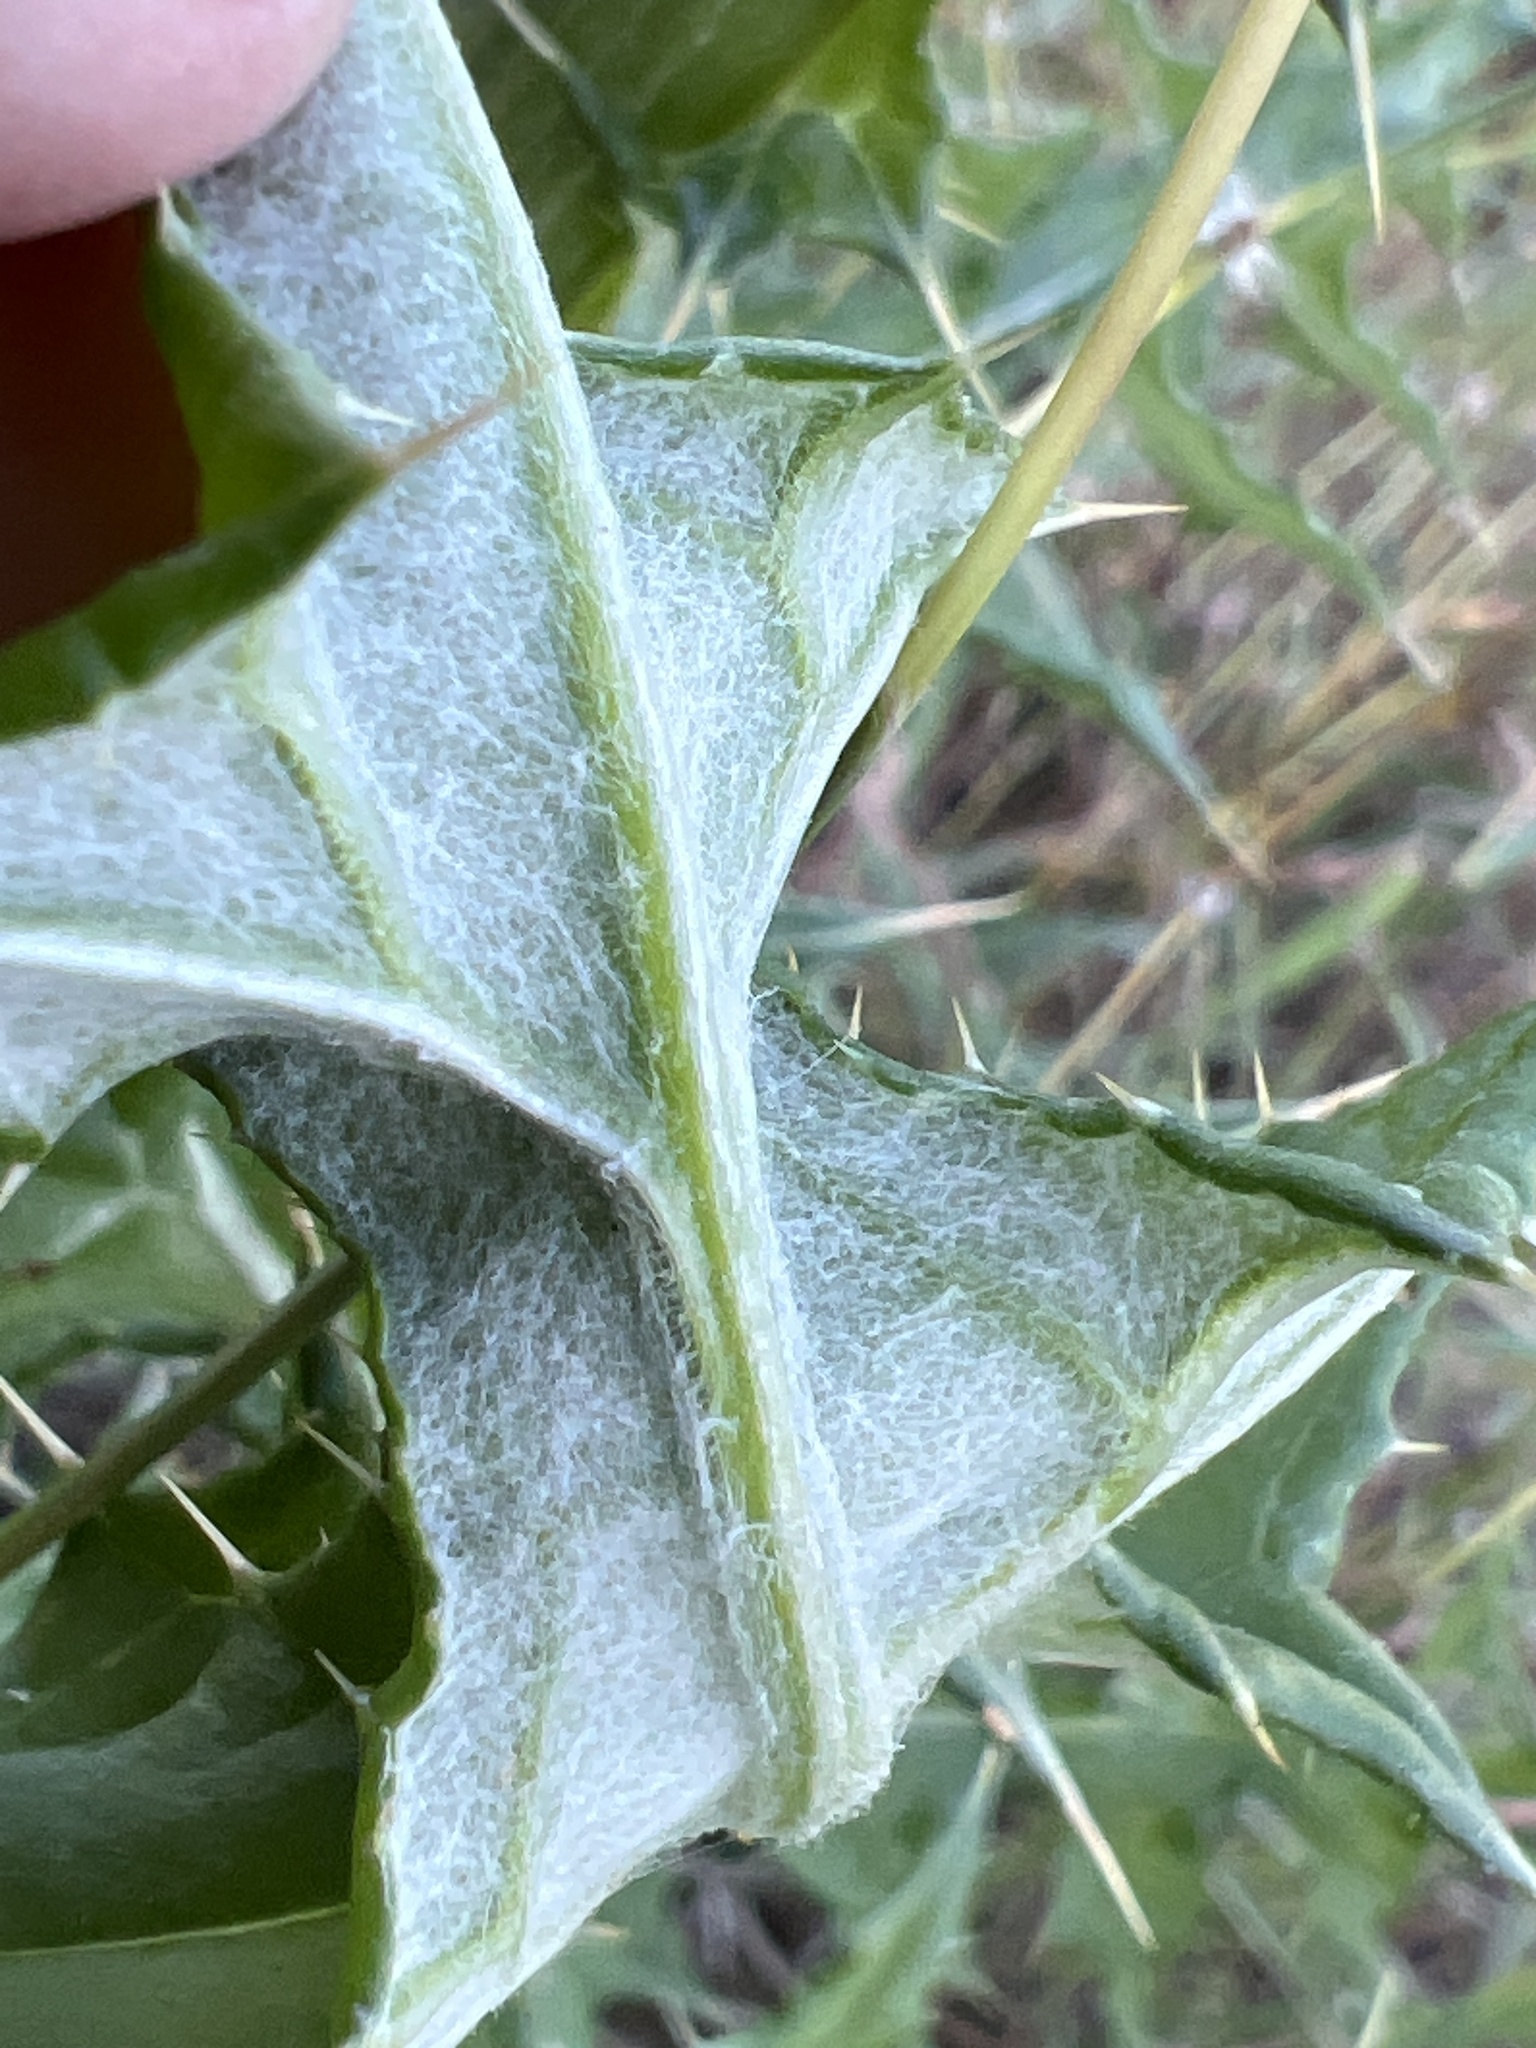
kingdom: Plantae
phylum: Tracheophyta
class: Magnoliopsida
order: Asterales
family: Asteraceae
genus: Cirsium
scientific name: Cirsium texanum
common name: Texas purple thistle
